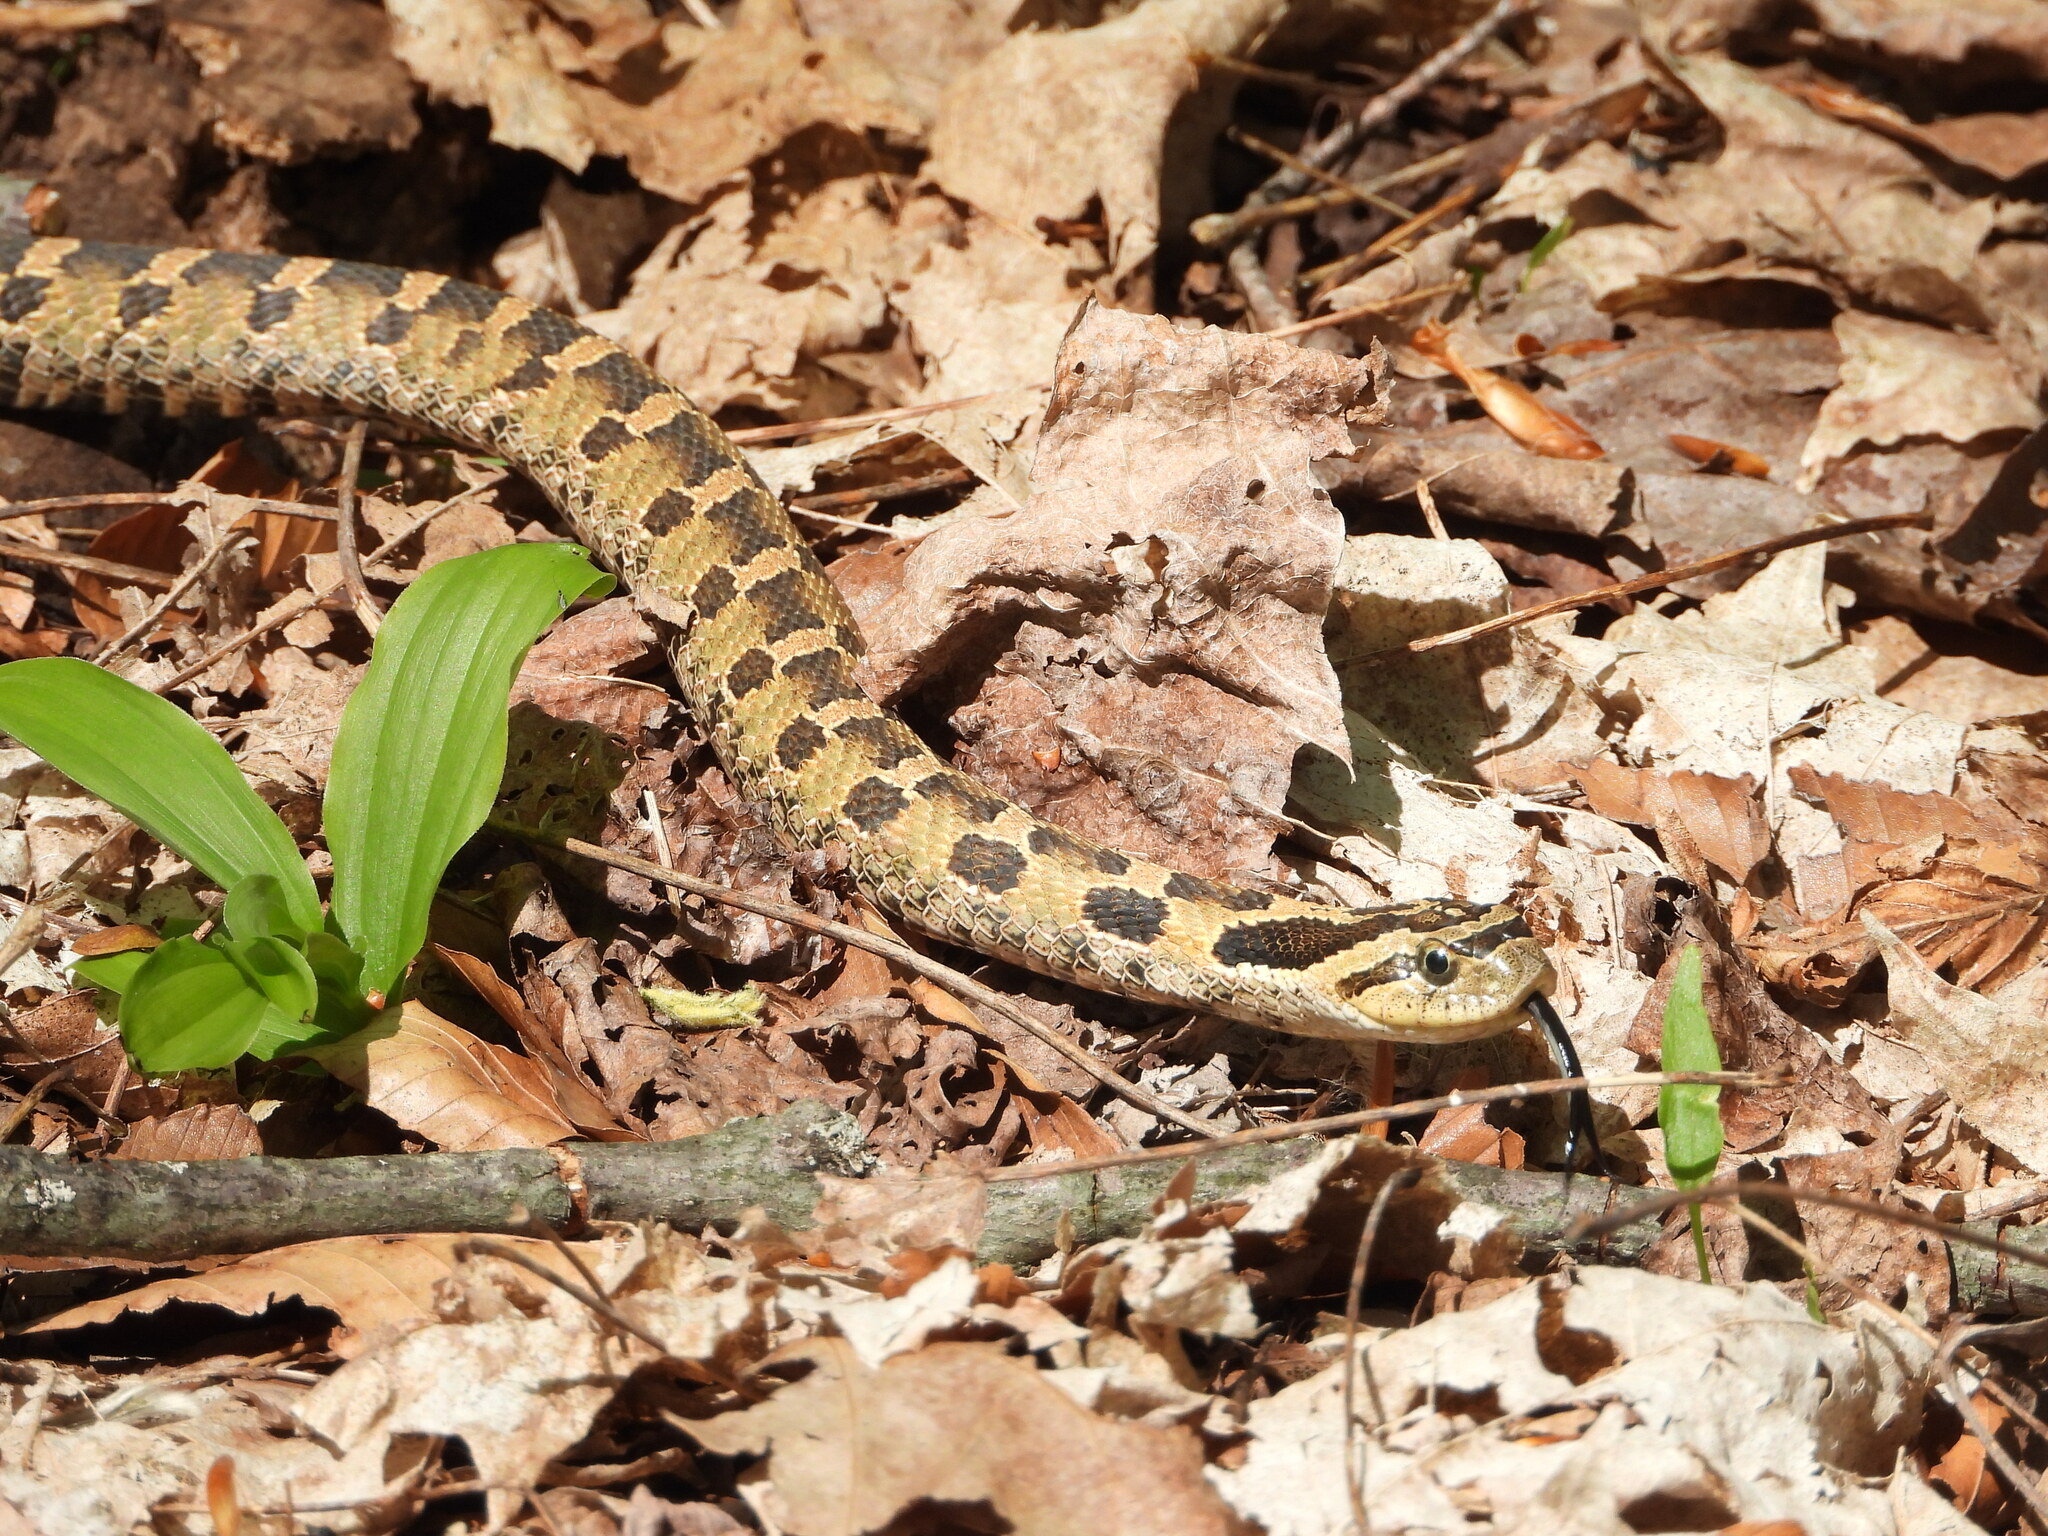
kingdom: Animalia
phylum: Chordata
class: Squamata
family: Colubridae
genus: Heterodon
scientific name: Heterodon platirhinos
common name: Eastern hognose snake
